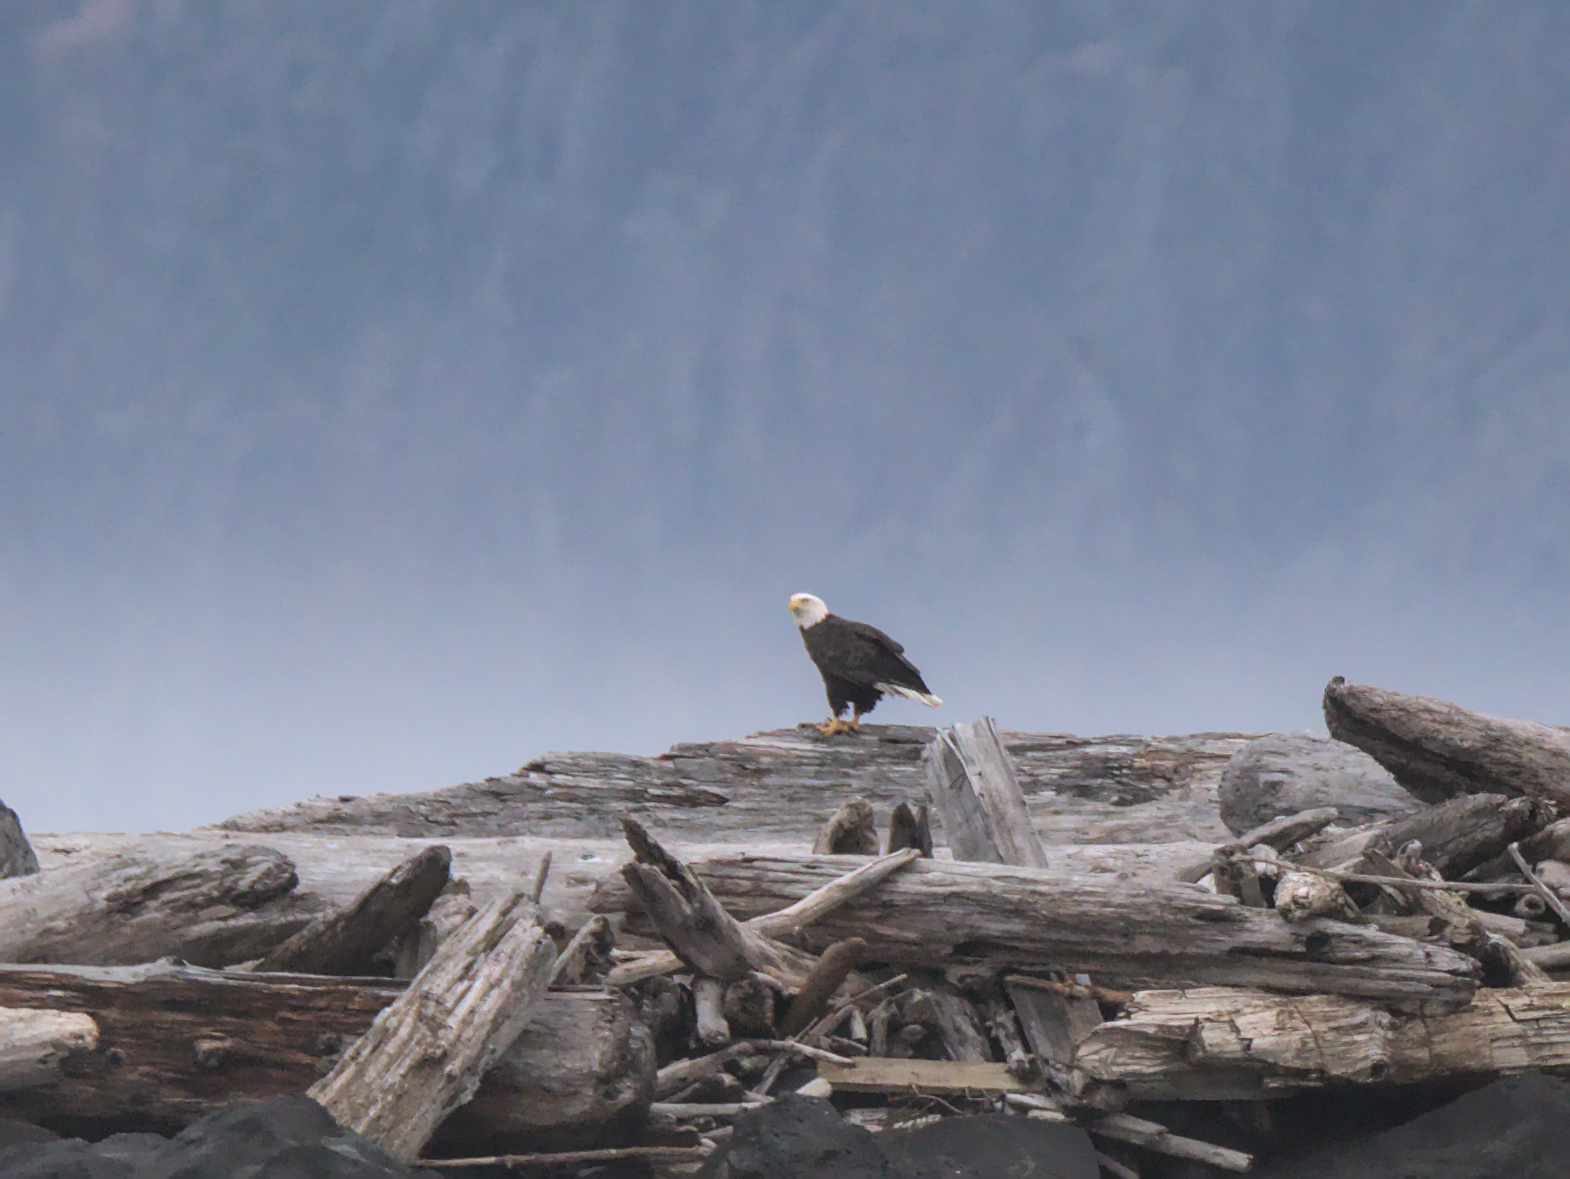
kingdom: Animalia
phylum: Chordata
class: Aves
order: Accipitriformes
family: Accipitridae
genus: Haliaeetus
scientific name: Haliaeetus leucocephalus
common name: Bald eagle
